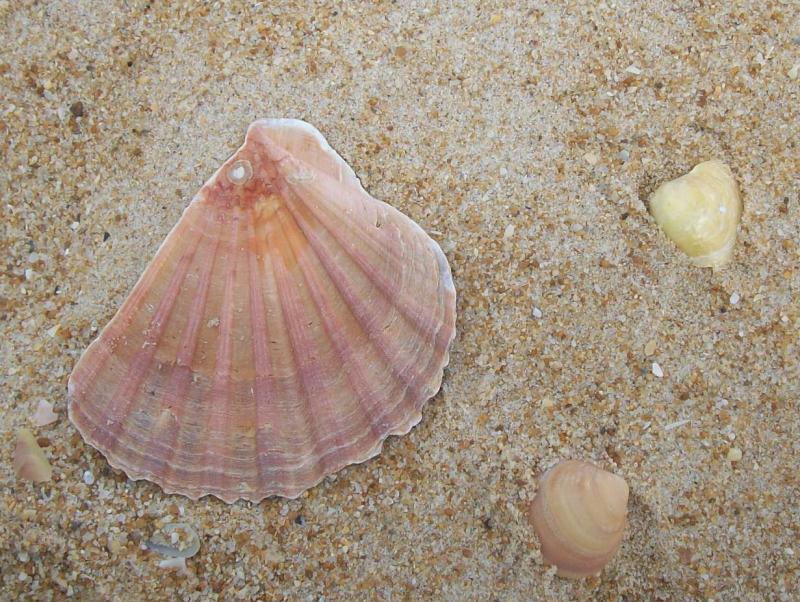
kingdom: Animalia
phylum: Mollusca
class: Bivalvia
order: Pectinida
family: Pectinidae
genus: Pecten
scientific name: Pecten maximus
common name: Great scallop
